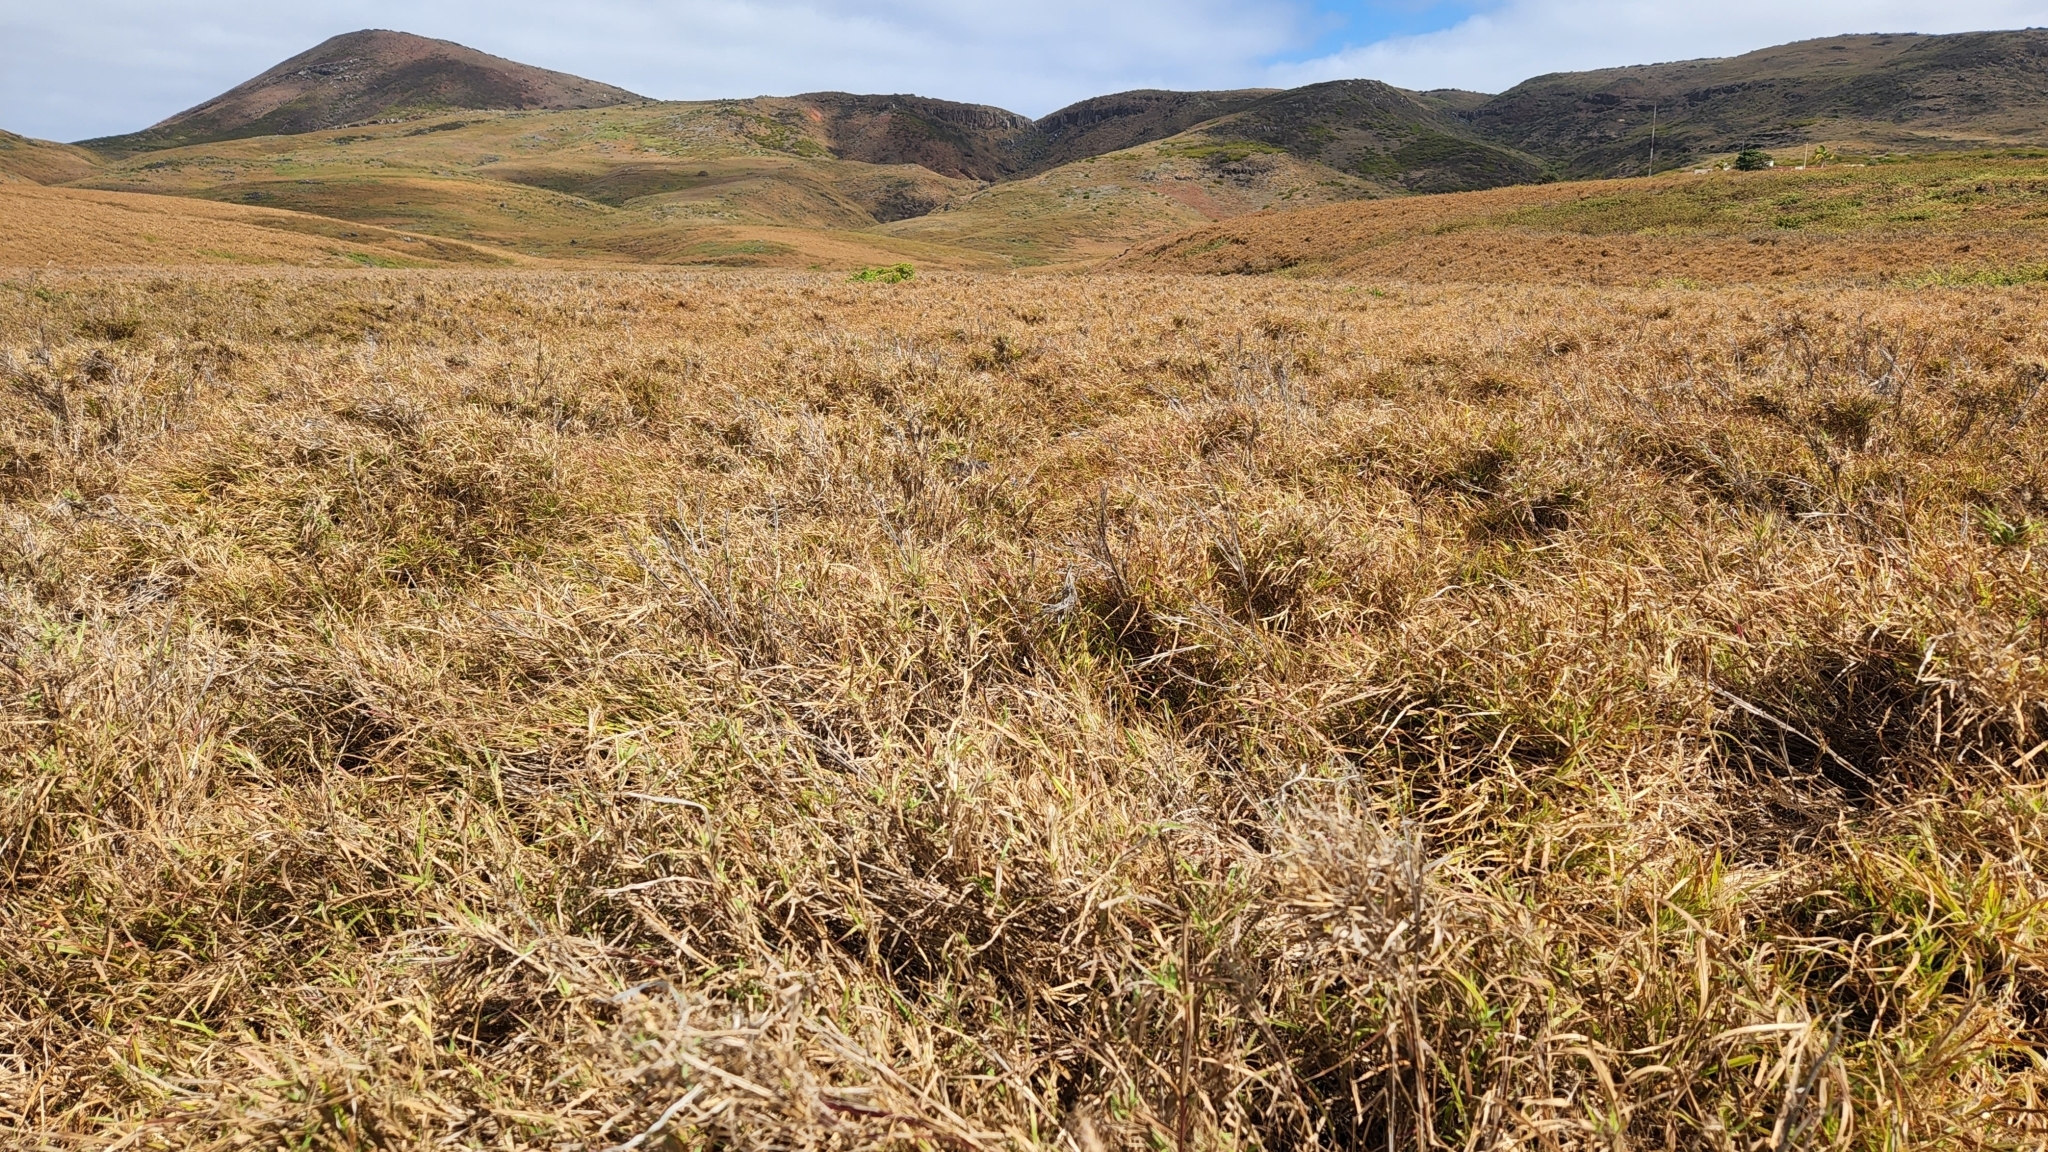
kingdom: Plantae
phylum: Tracheophyta
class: Liliopsida
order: Poales
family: Poaceae
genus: Cenchrus
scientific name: Cenchrus ciliaris
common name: Buffelgrass
